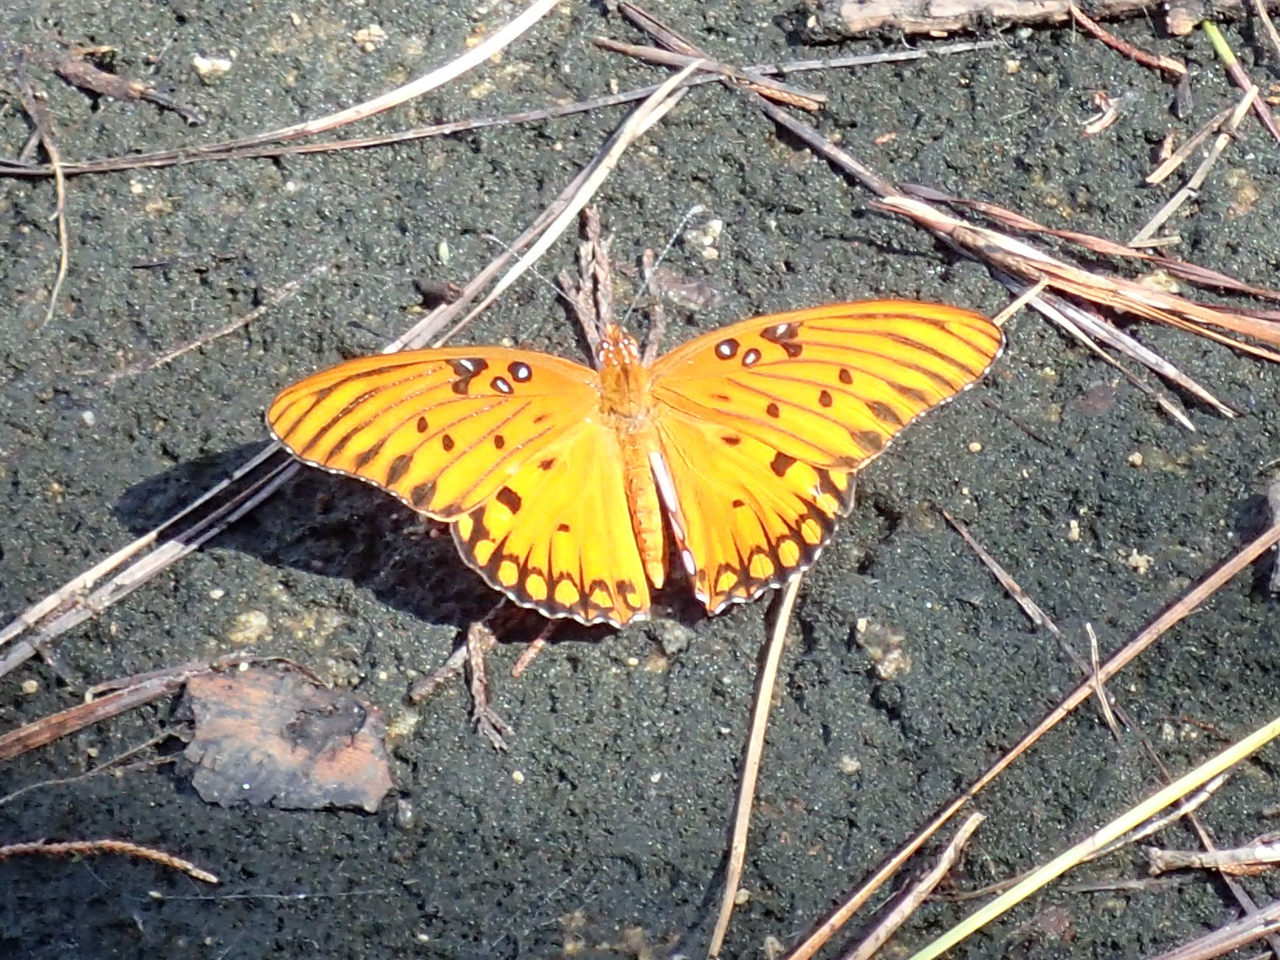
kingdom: Animalia
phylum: Arthropoda
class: Insecta
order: Lepidoptera
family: Nymphalidae
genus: Dione
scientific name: Dione vanillae
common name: Gulf fritillary
